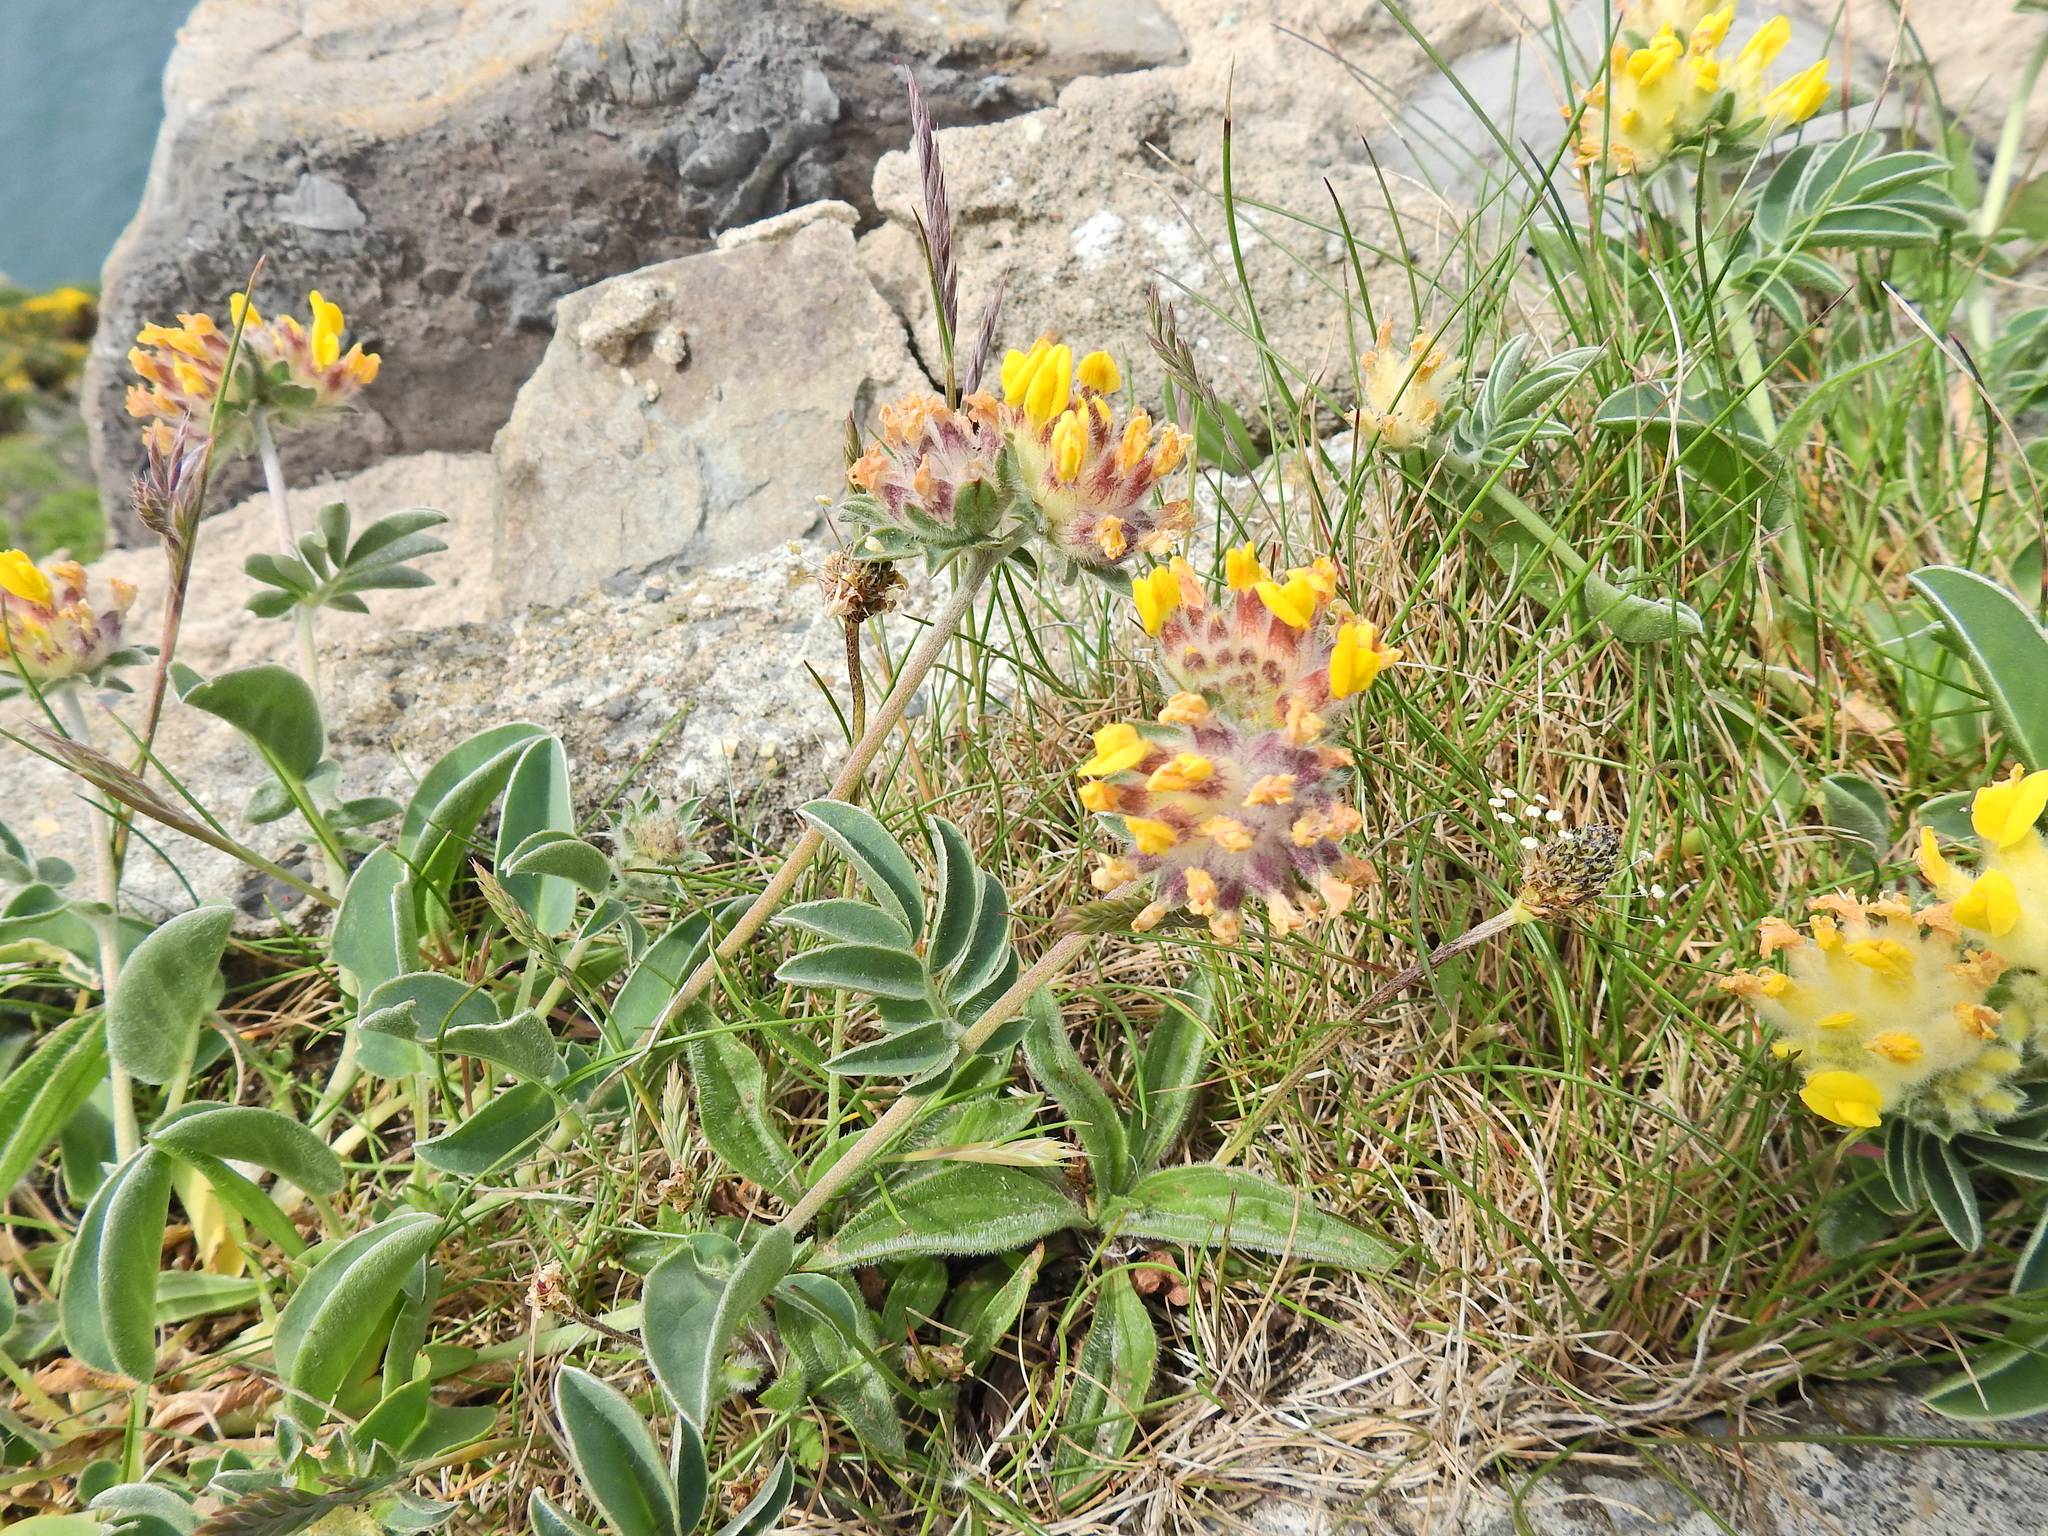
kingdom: Plantae
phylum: Tracheophyta
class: Magnoliopsida
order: Fabales
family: Fabaceae
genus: Anthyllis
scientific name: Anthyllis vulneraria
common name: Kidney vetch
